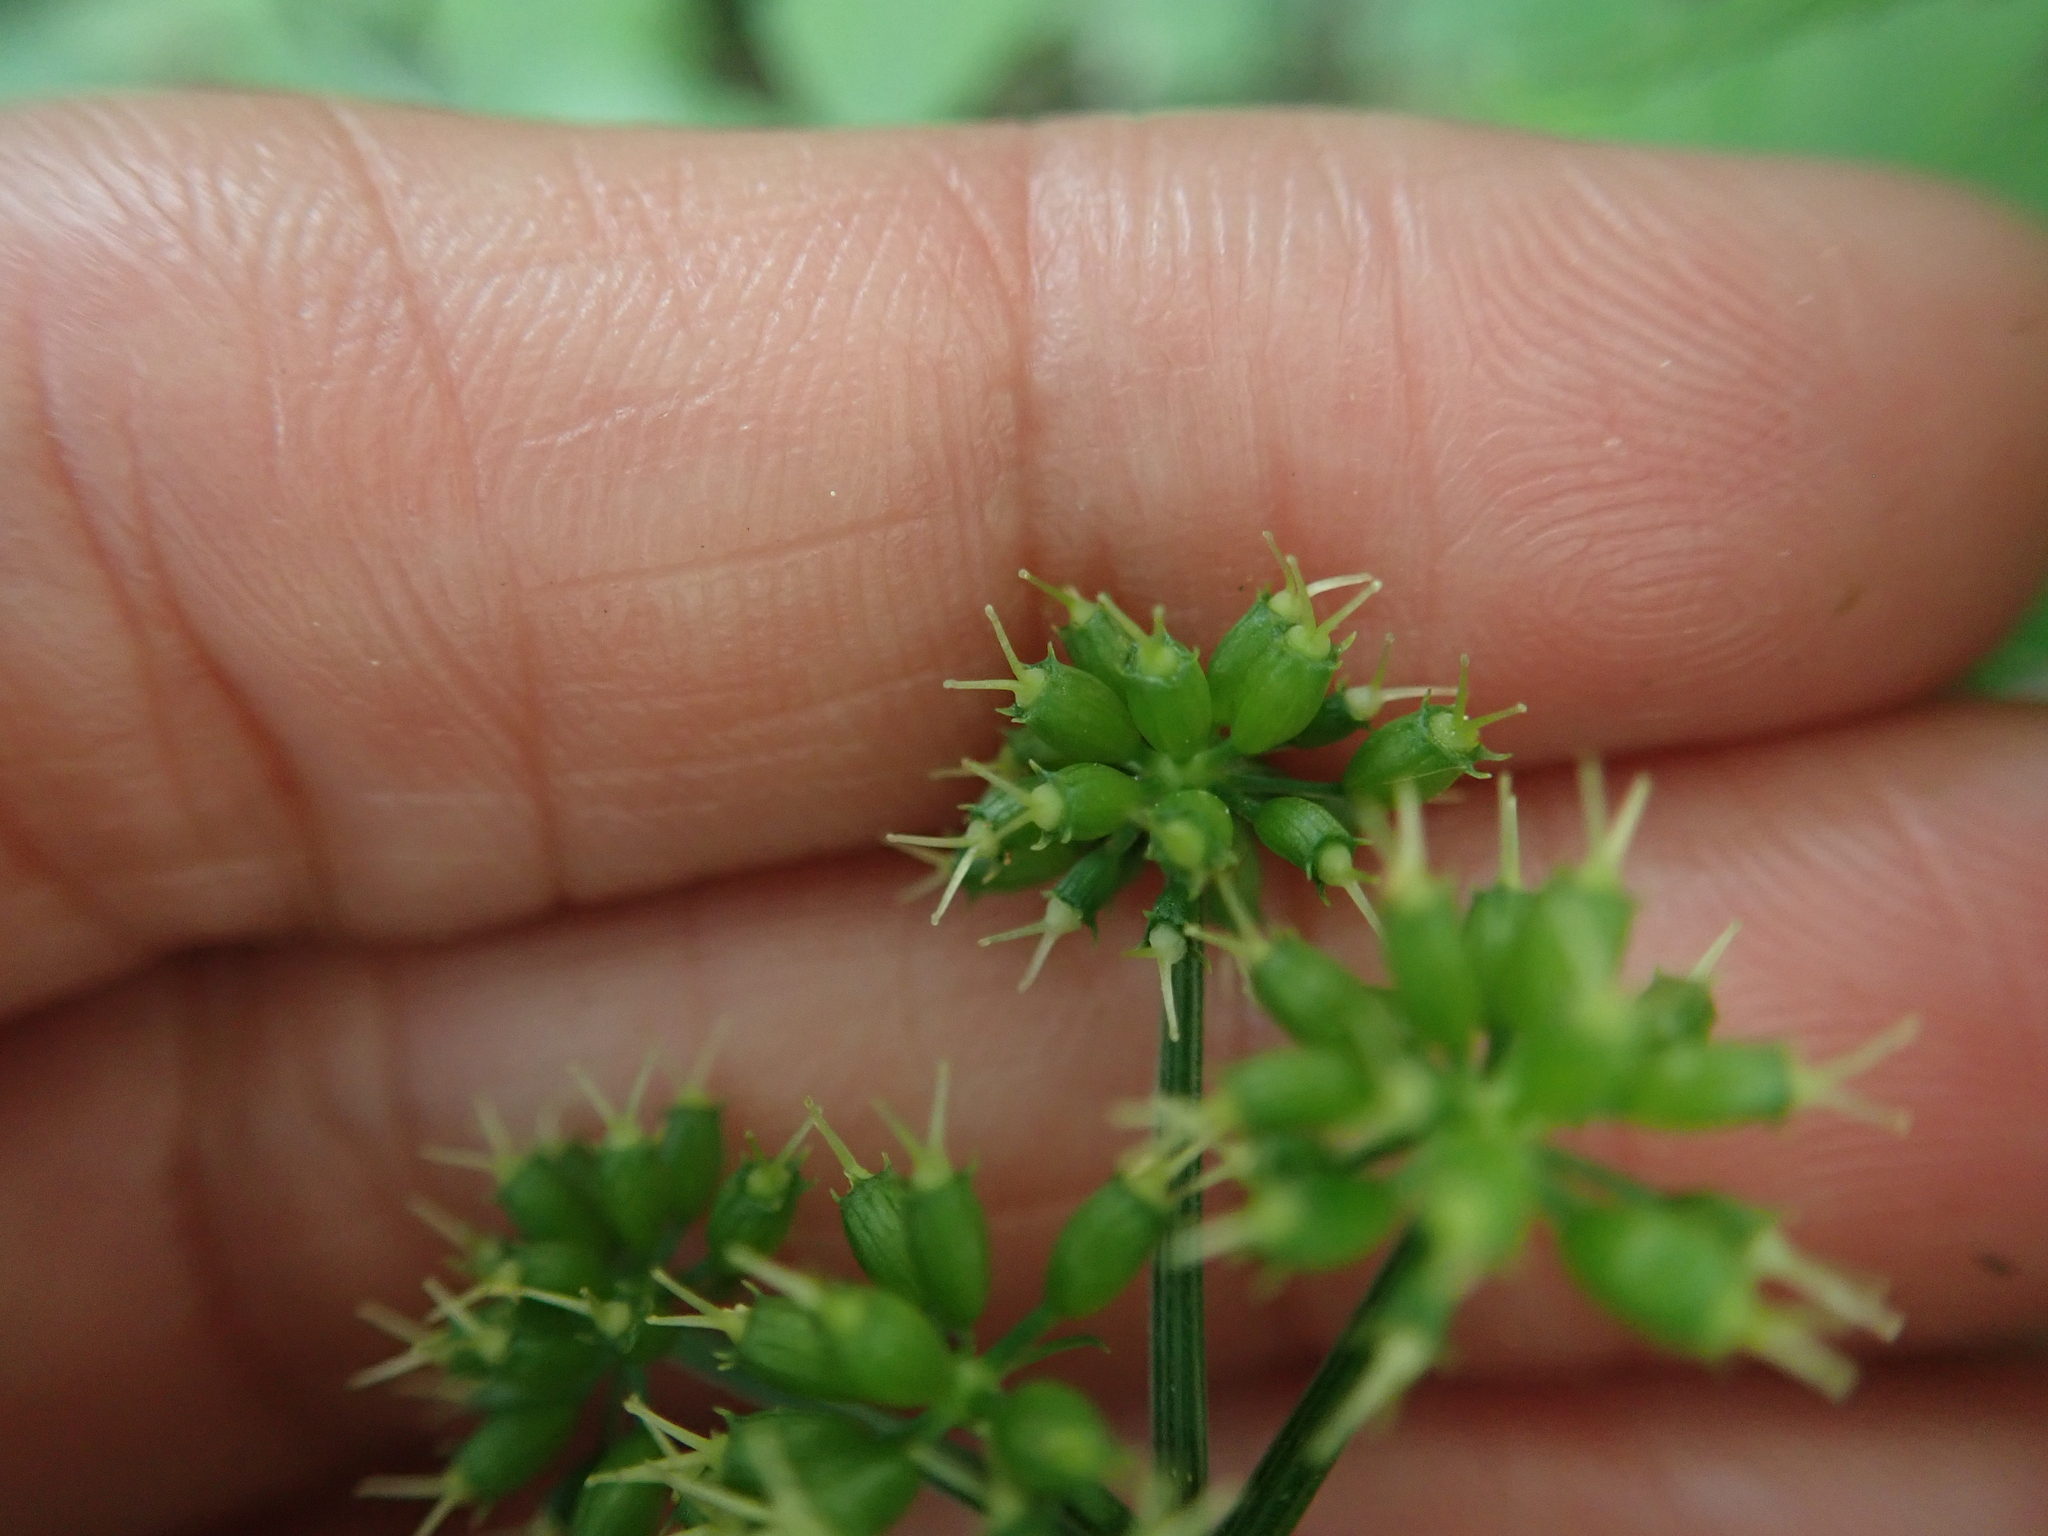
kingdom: Plantae
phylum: Tracheophyta
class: Magnoliopsida
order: Apiales
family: Apiaceae
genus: Oenanthe
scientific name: Oenanthe javanica
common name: Java water-dropwort
